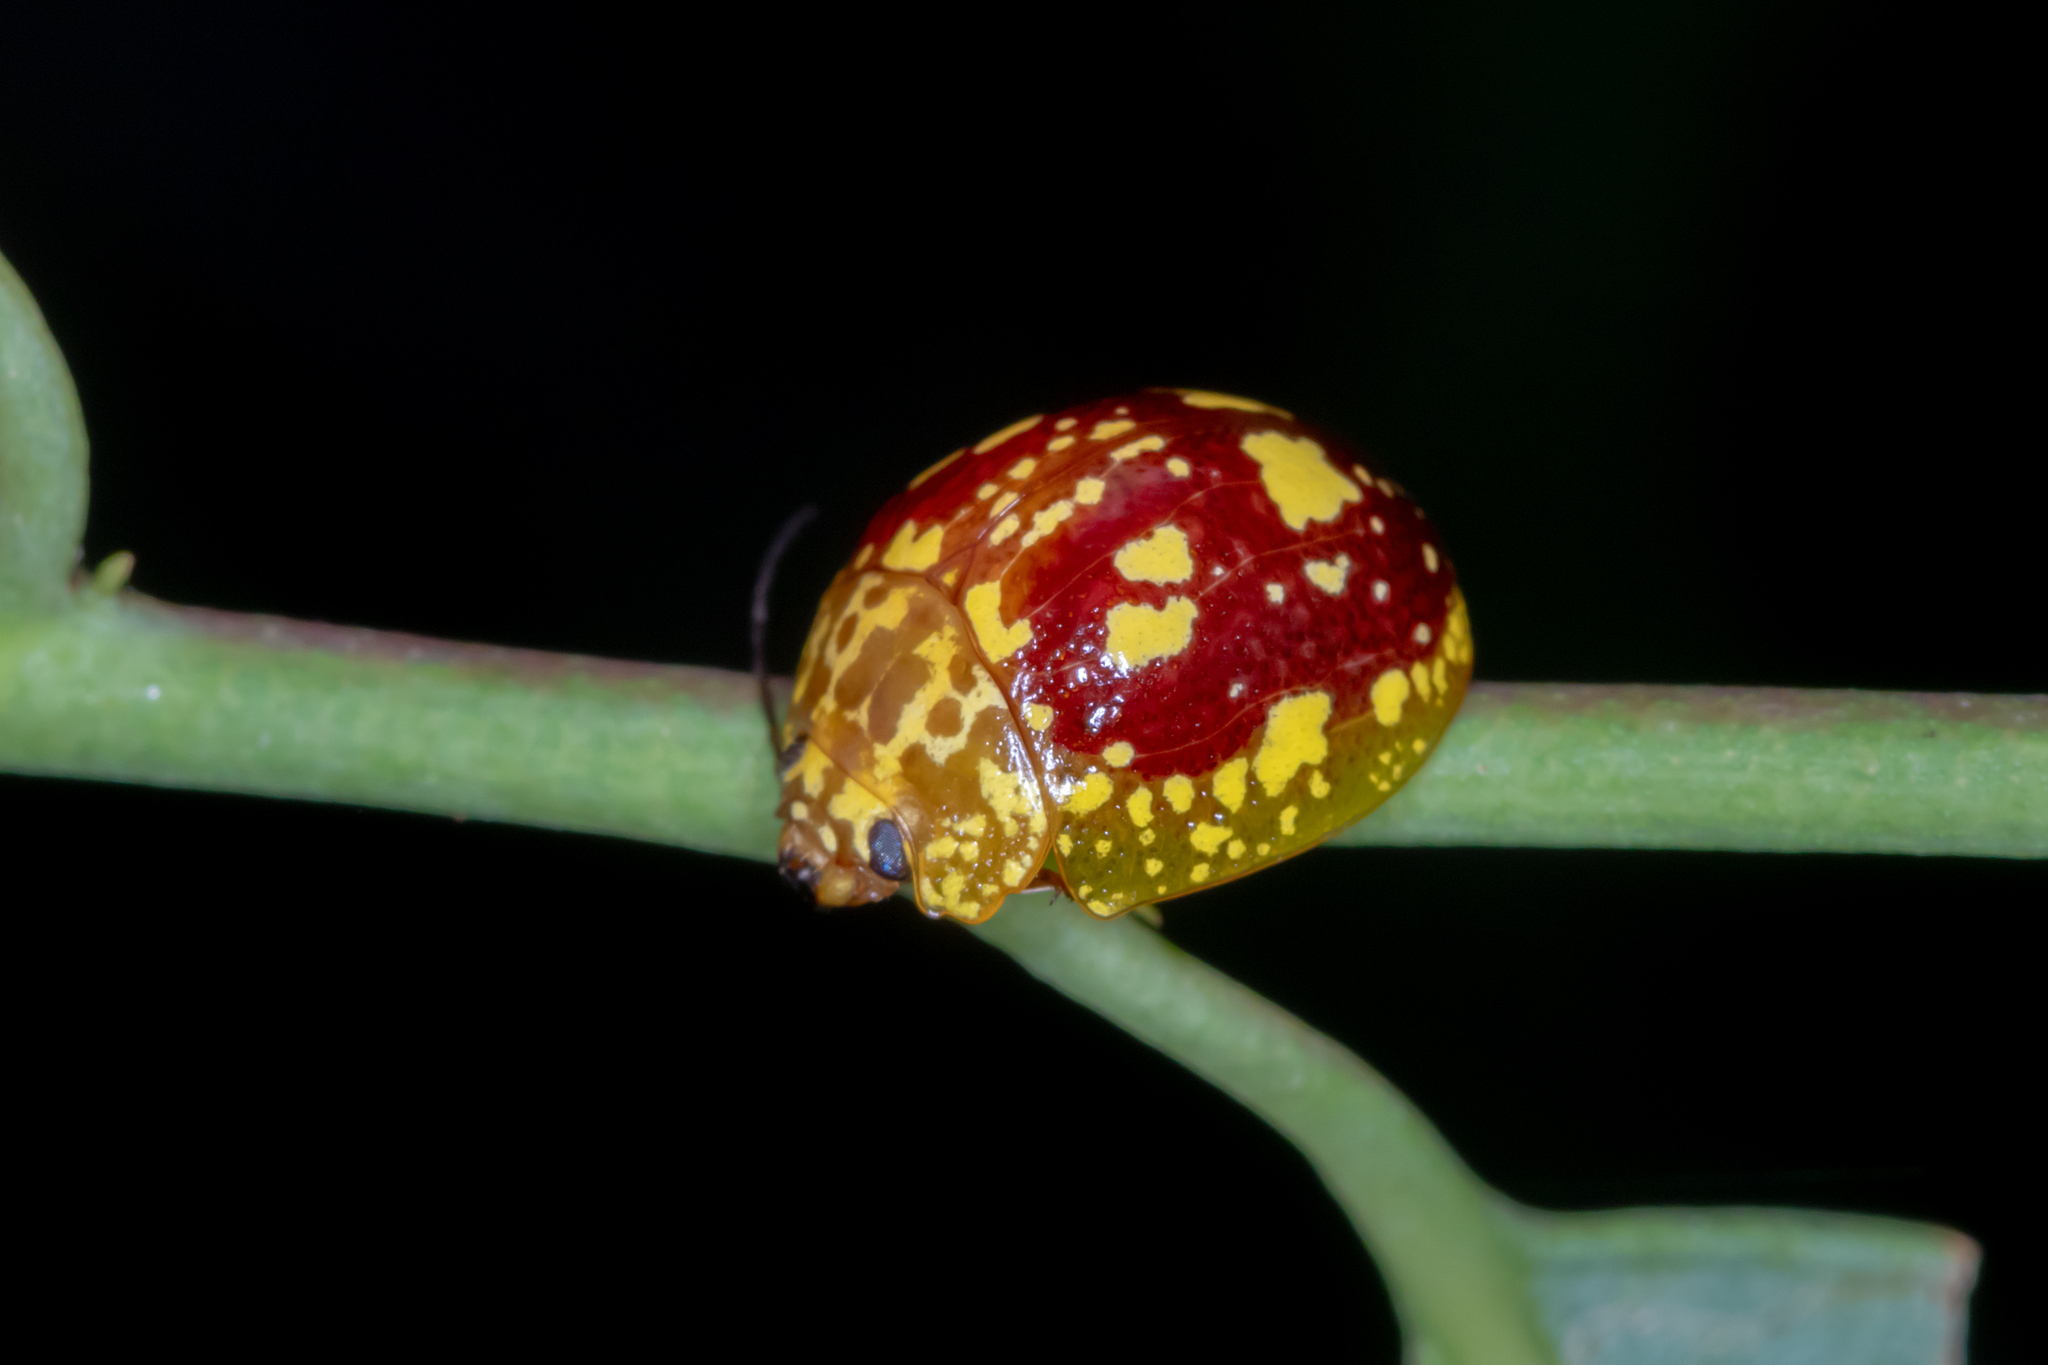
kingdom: Animalia
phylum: Arthropoda
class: Insecta
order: Coleoptera
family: Chrysomelidae
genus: Paropsis
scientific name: Paropsis maculata
